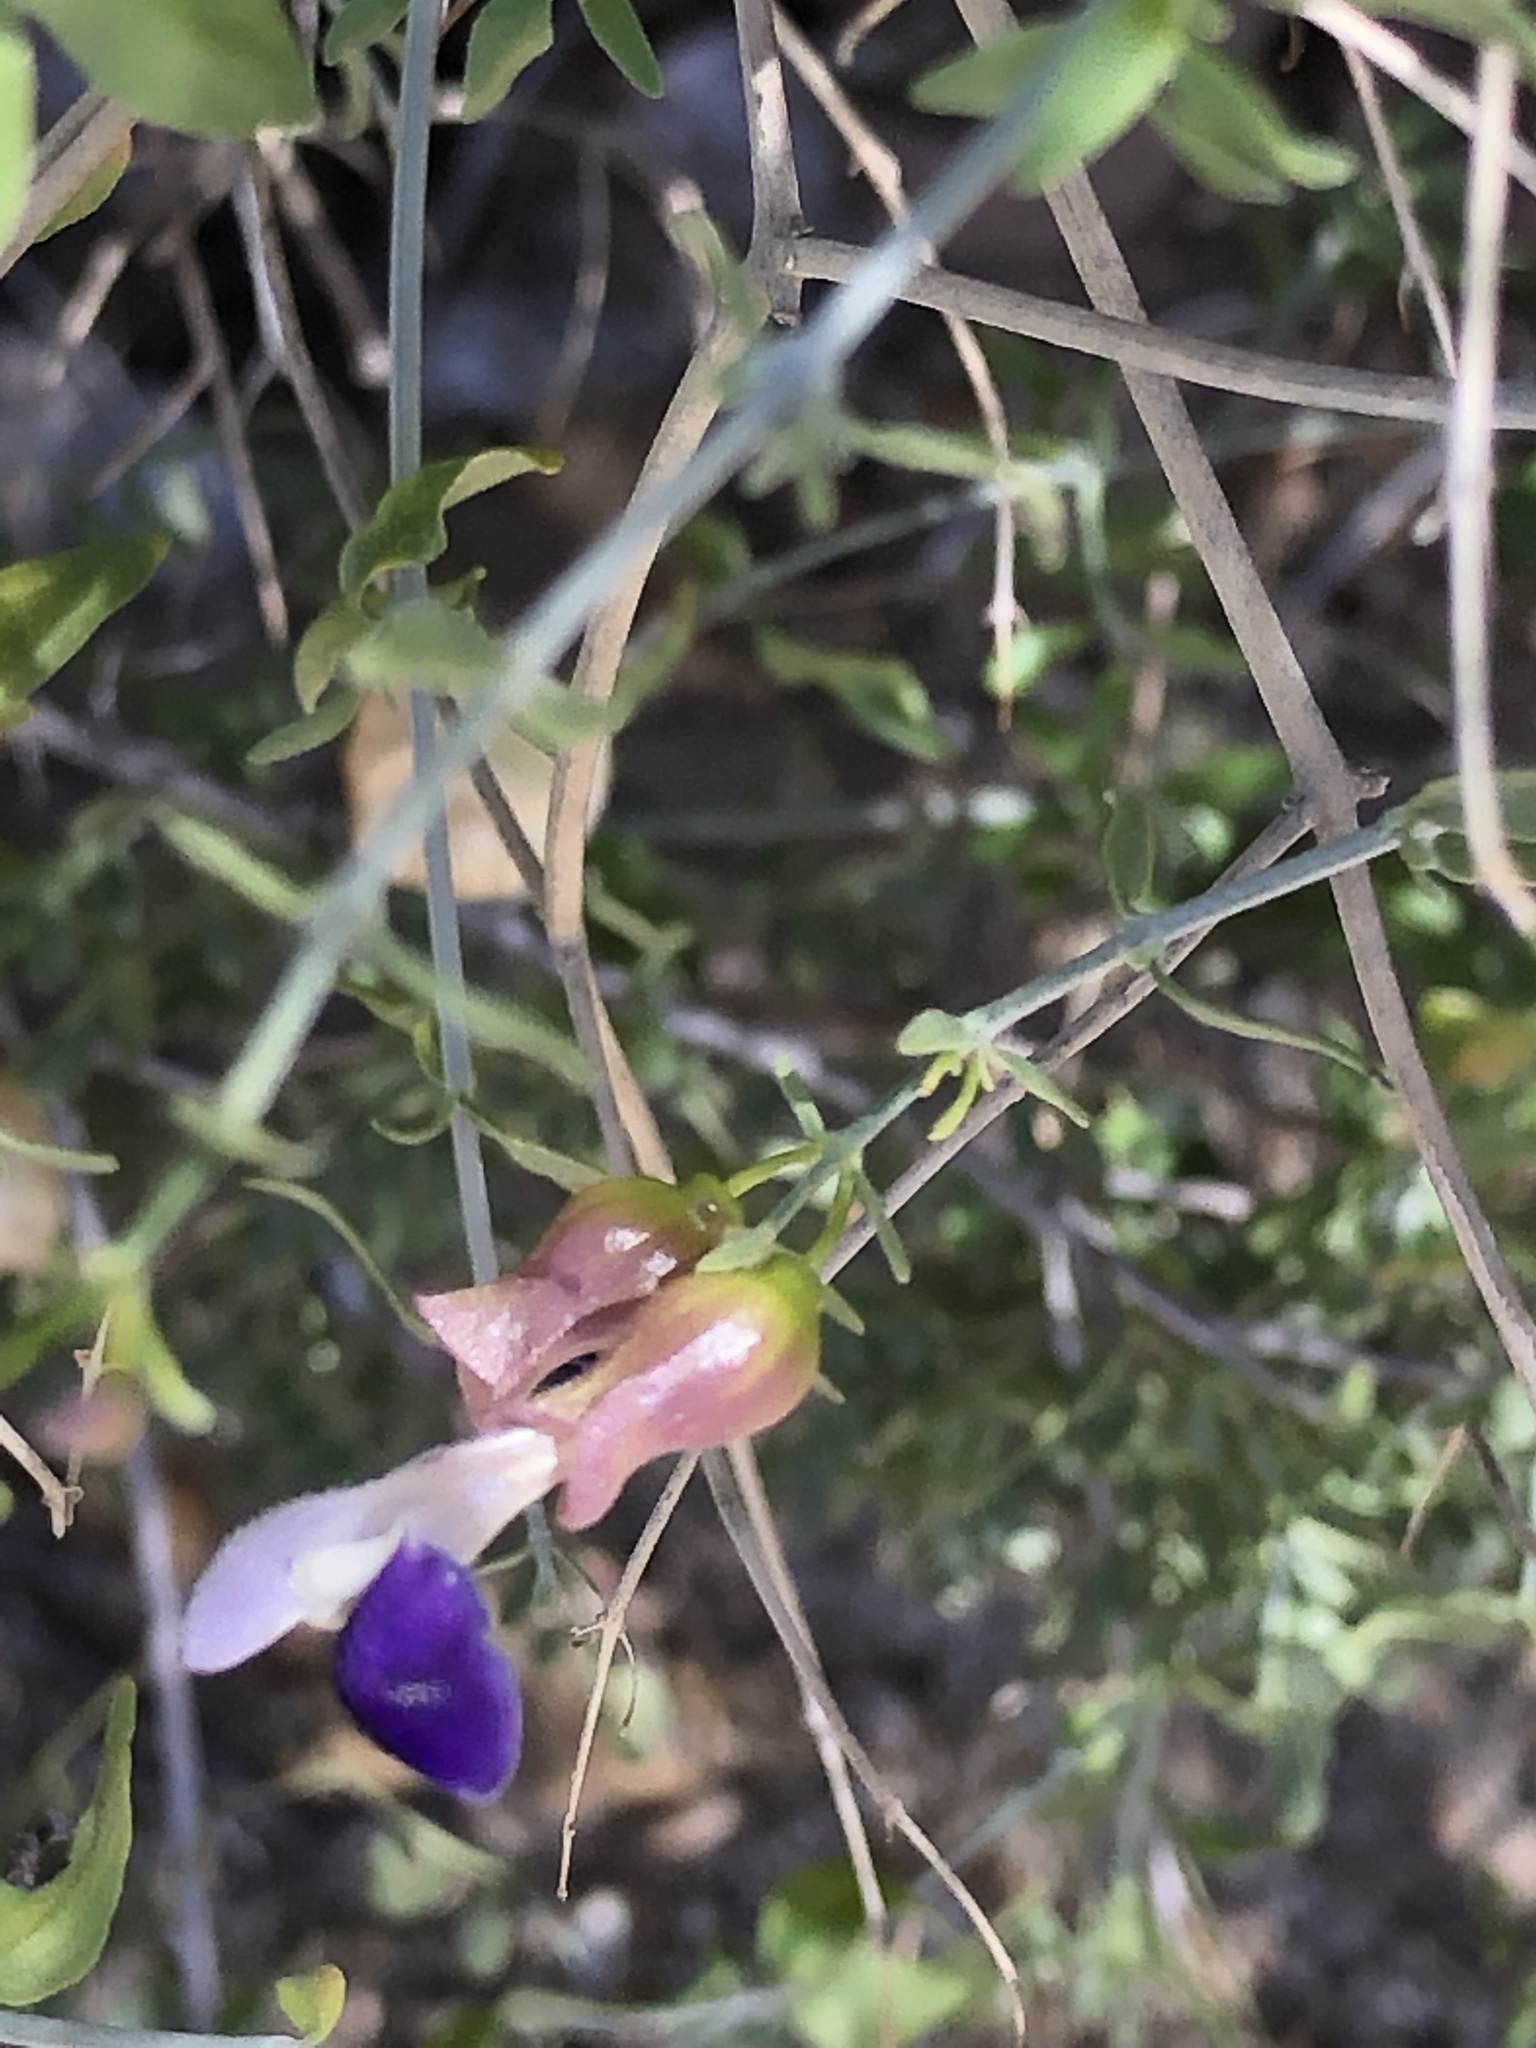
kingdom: Plantae
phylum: Tracheophyta
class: Magnoliopsida
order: Lamiales
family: Lamiaceae
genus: Scutellaria
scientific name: Scutellaria mexicana
